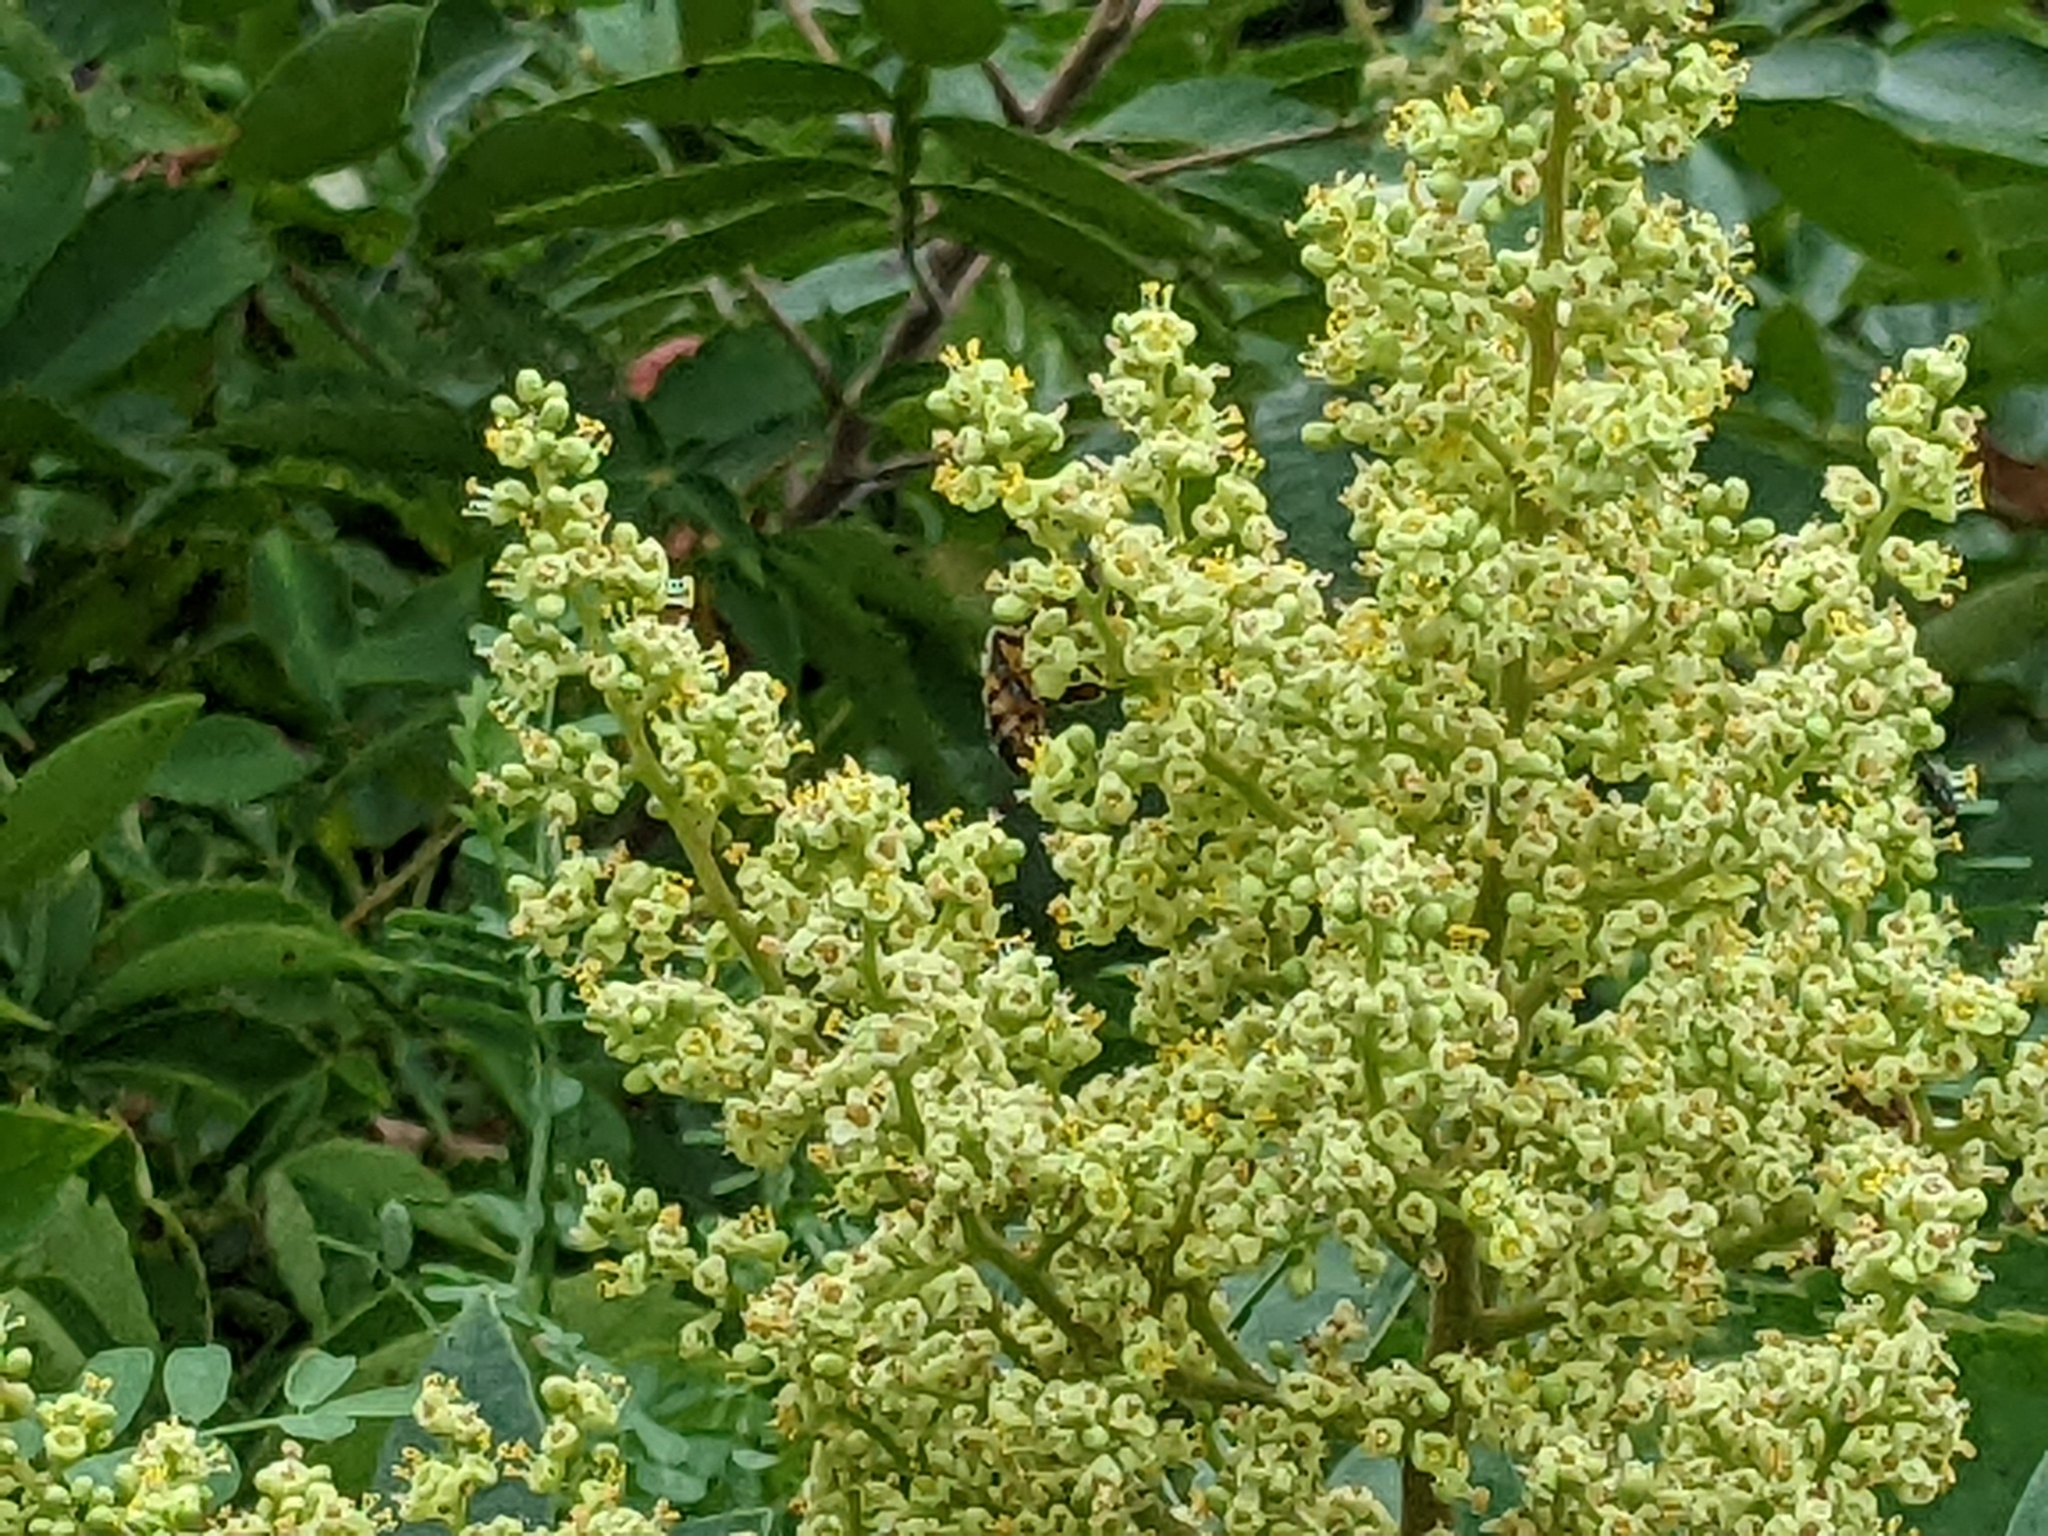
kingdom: Animalia
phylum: Arthropoda
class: Insecta
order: Hymenoptera
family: Apidae
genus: Apis
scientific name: Apis mellifera
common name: Honey bee
